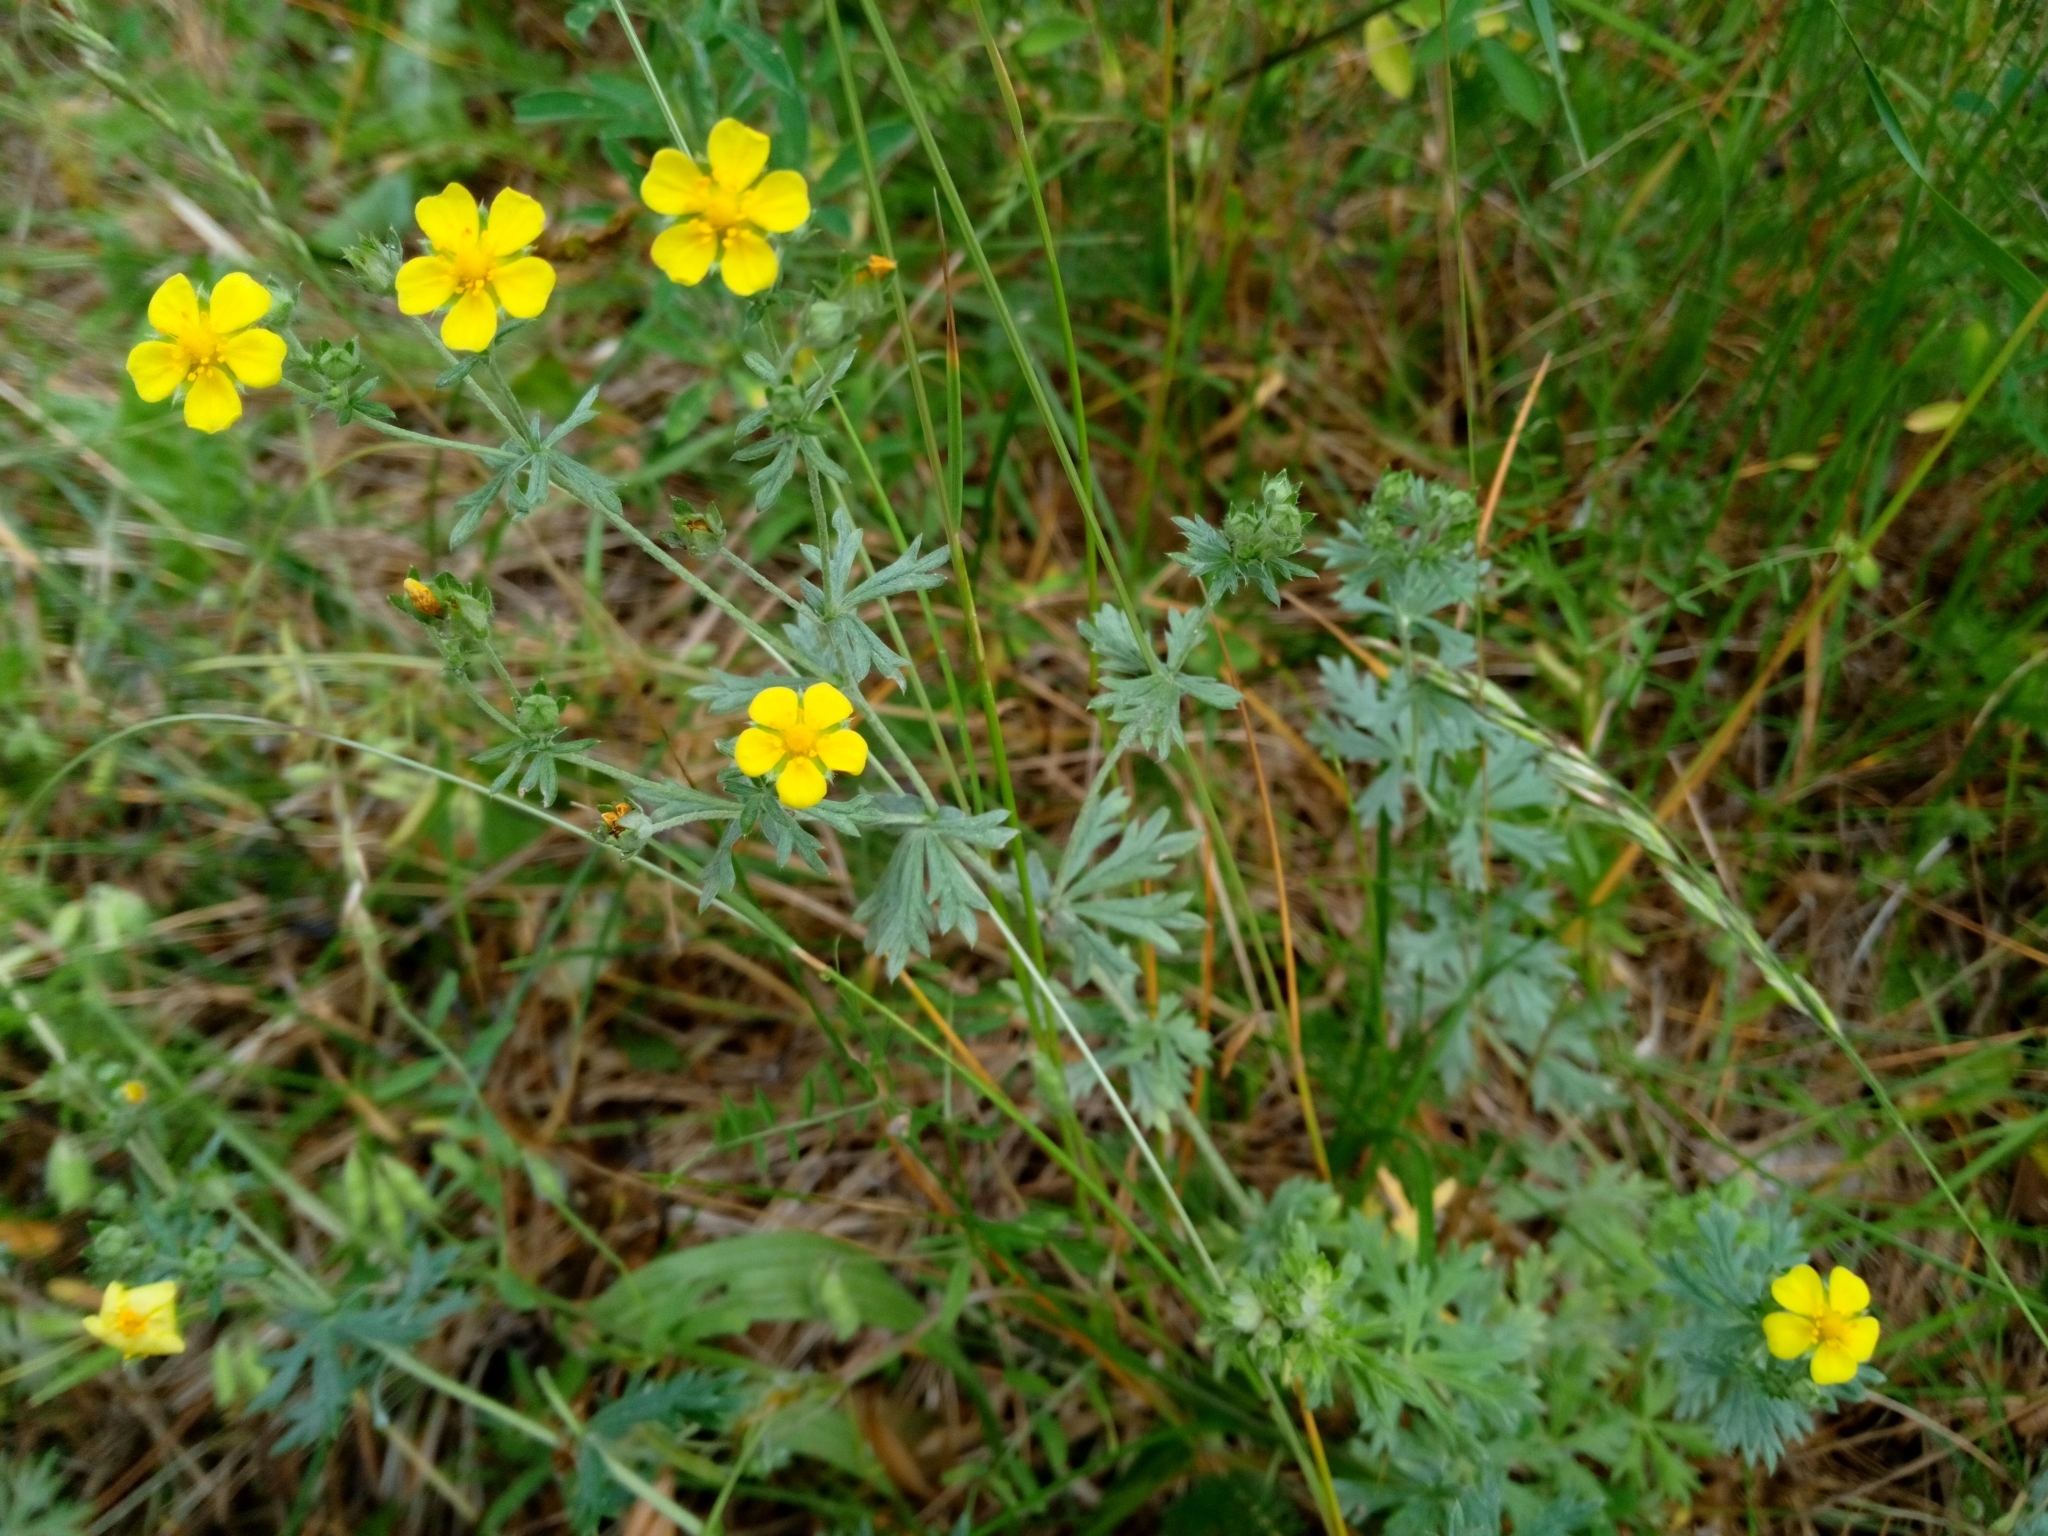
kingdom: Plantae
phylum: Tracheophyta
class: Magnoliopsida
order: Rosales
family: Rosaceae
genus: Potentilla
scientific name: Potentilla argentea
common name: Hoary cinquefoil
